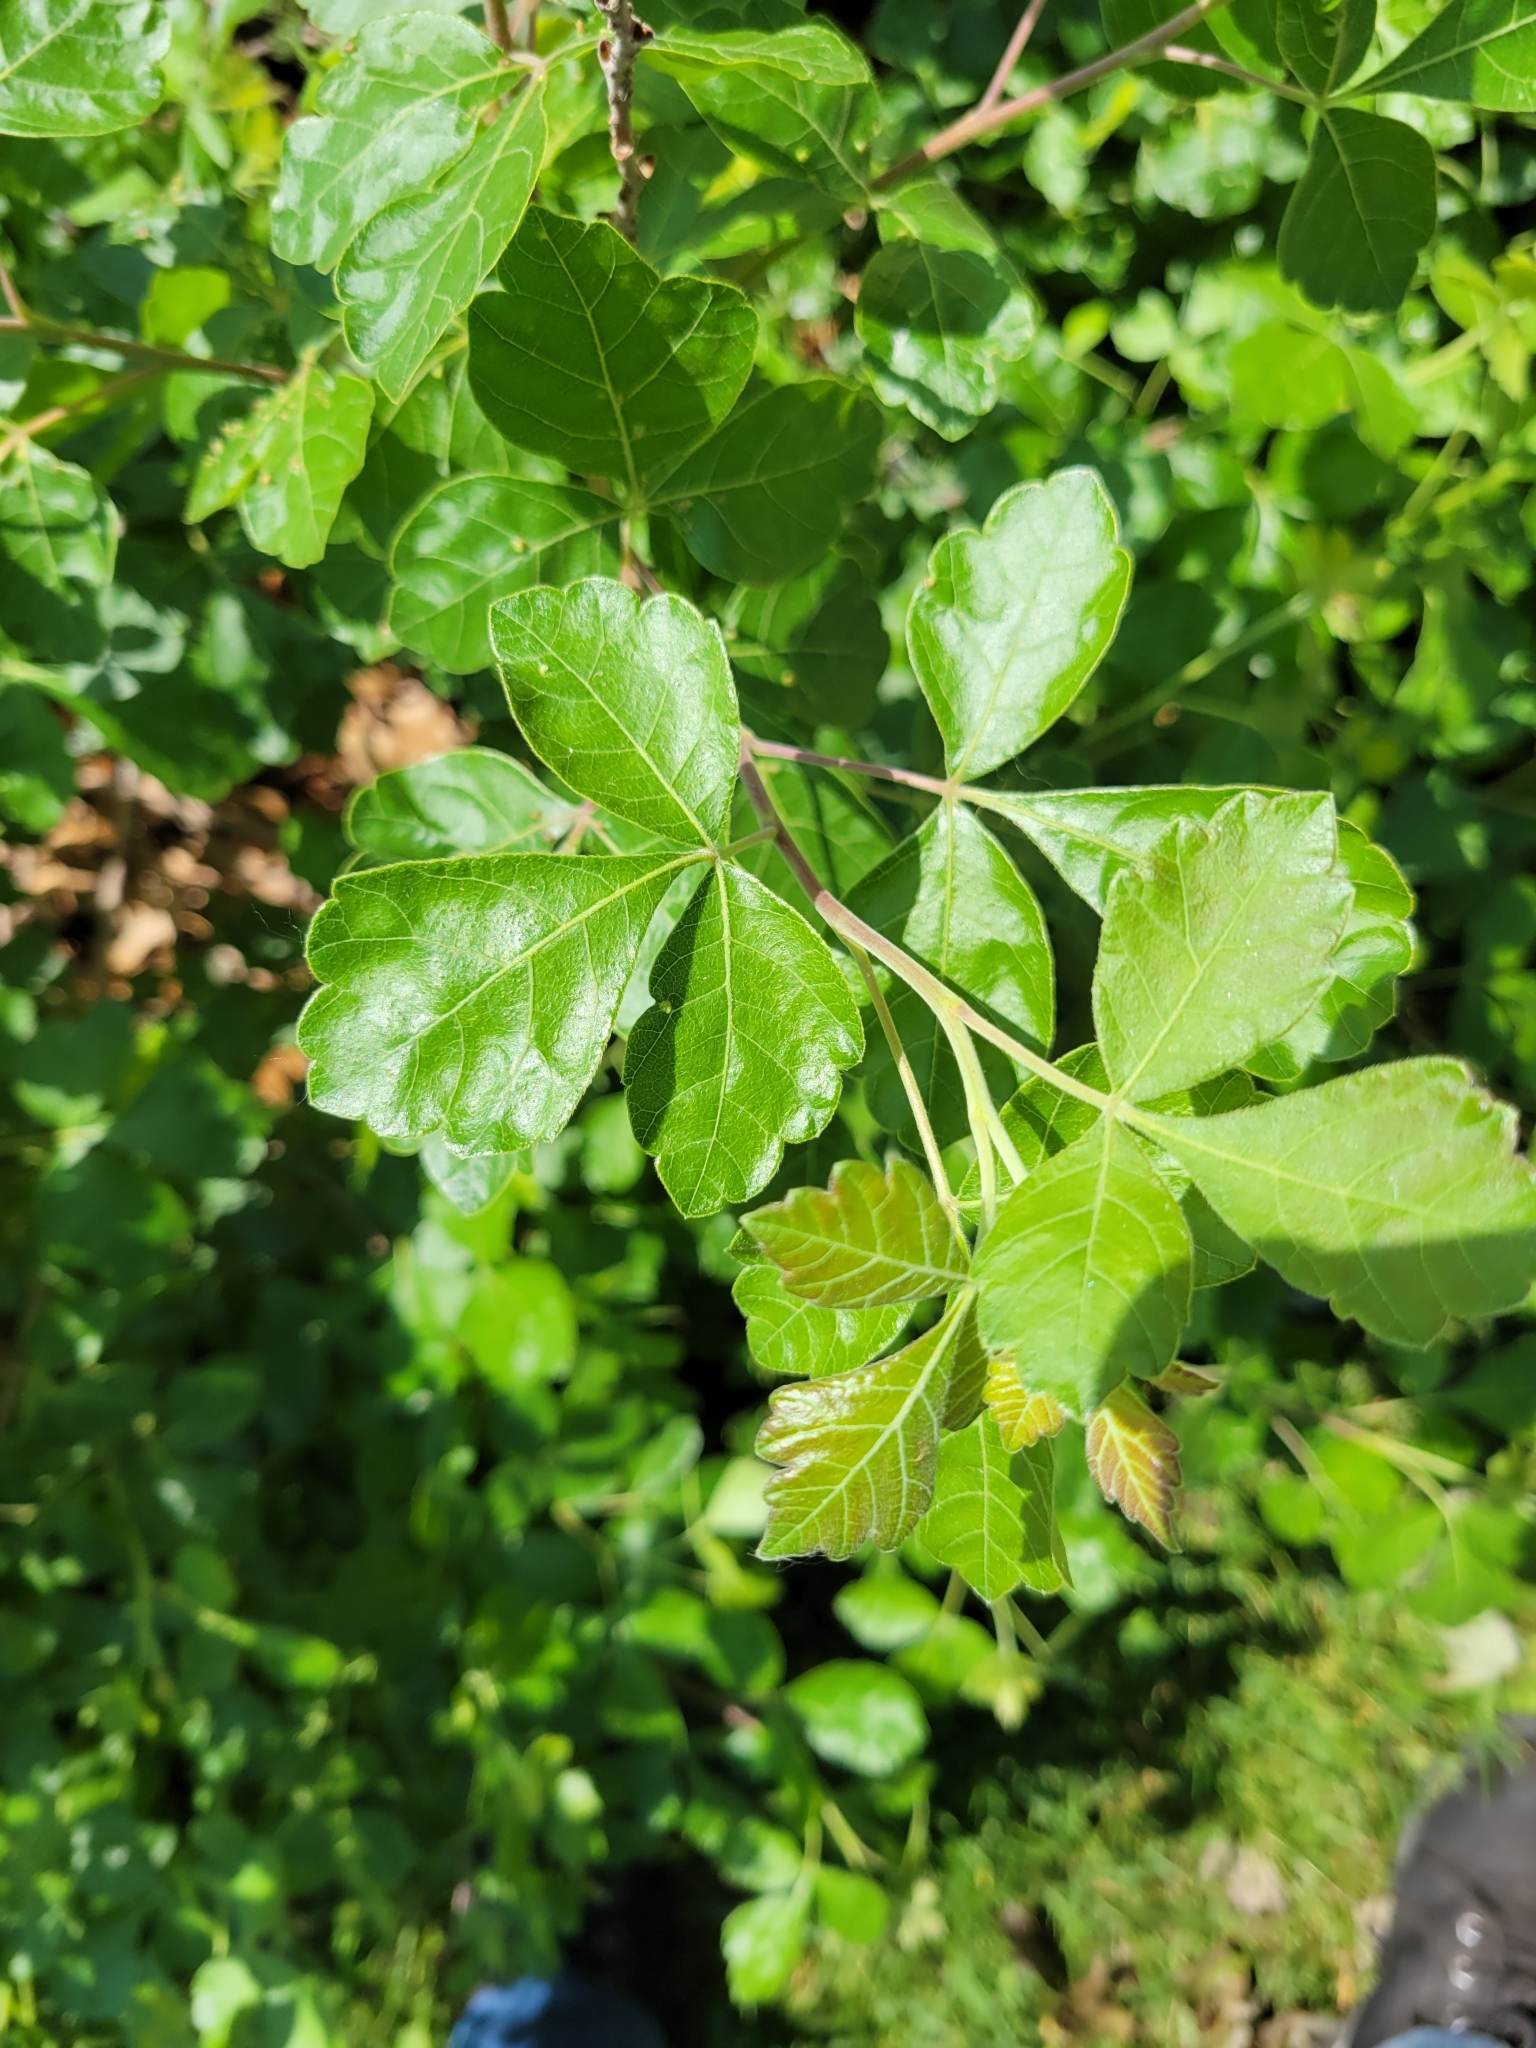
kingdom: Plantae
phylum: Tracheophyta
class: Magnoliopsida
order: Sapindales
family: Anacardiaceae
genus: Rhus
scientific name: Rhus aromatica
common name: Aromatic sumac
